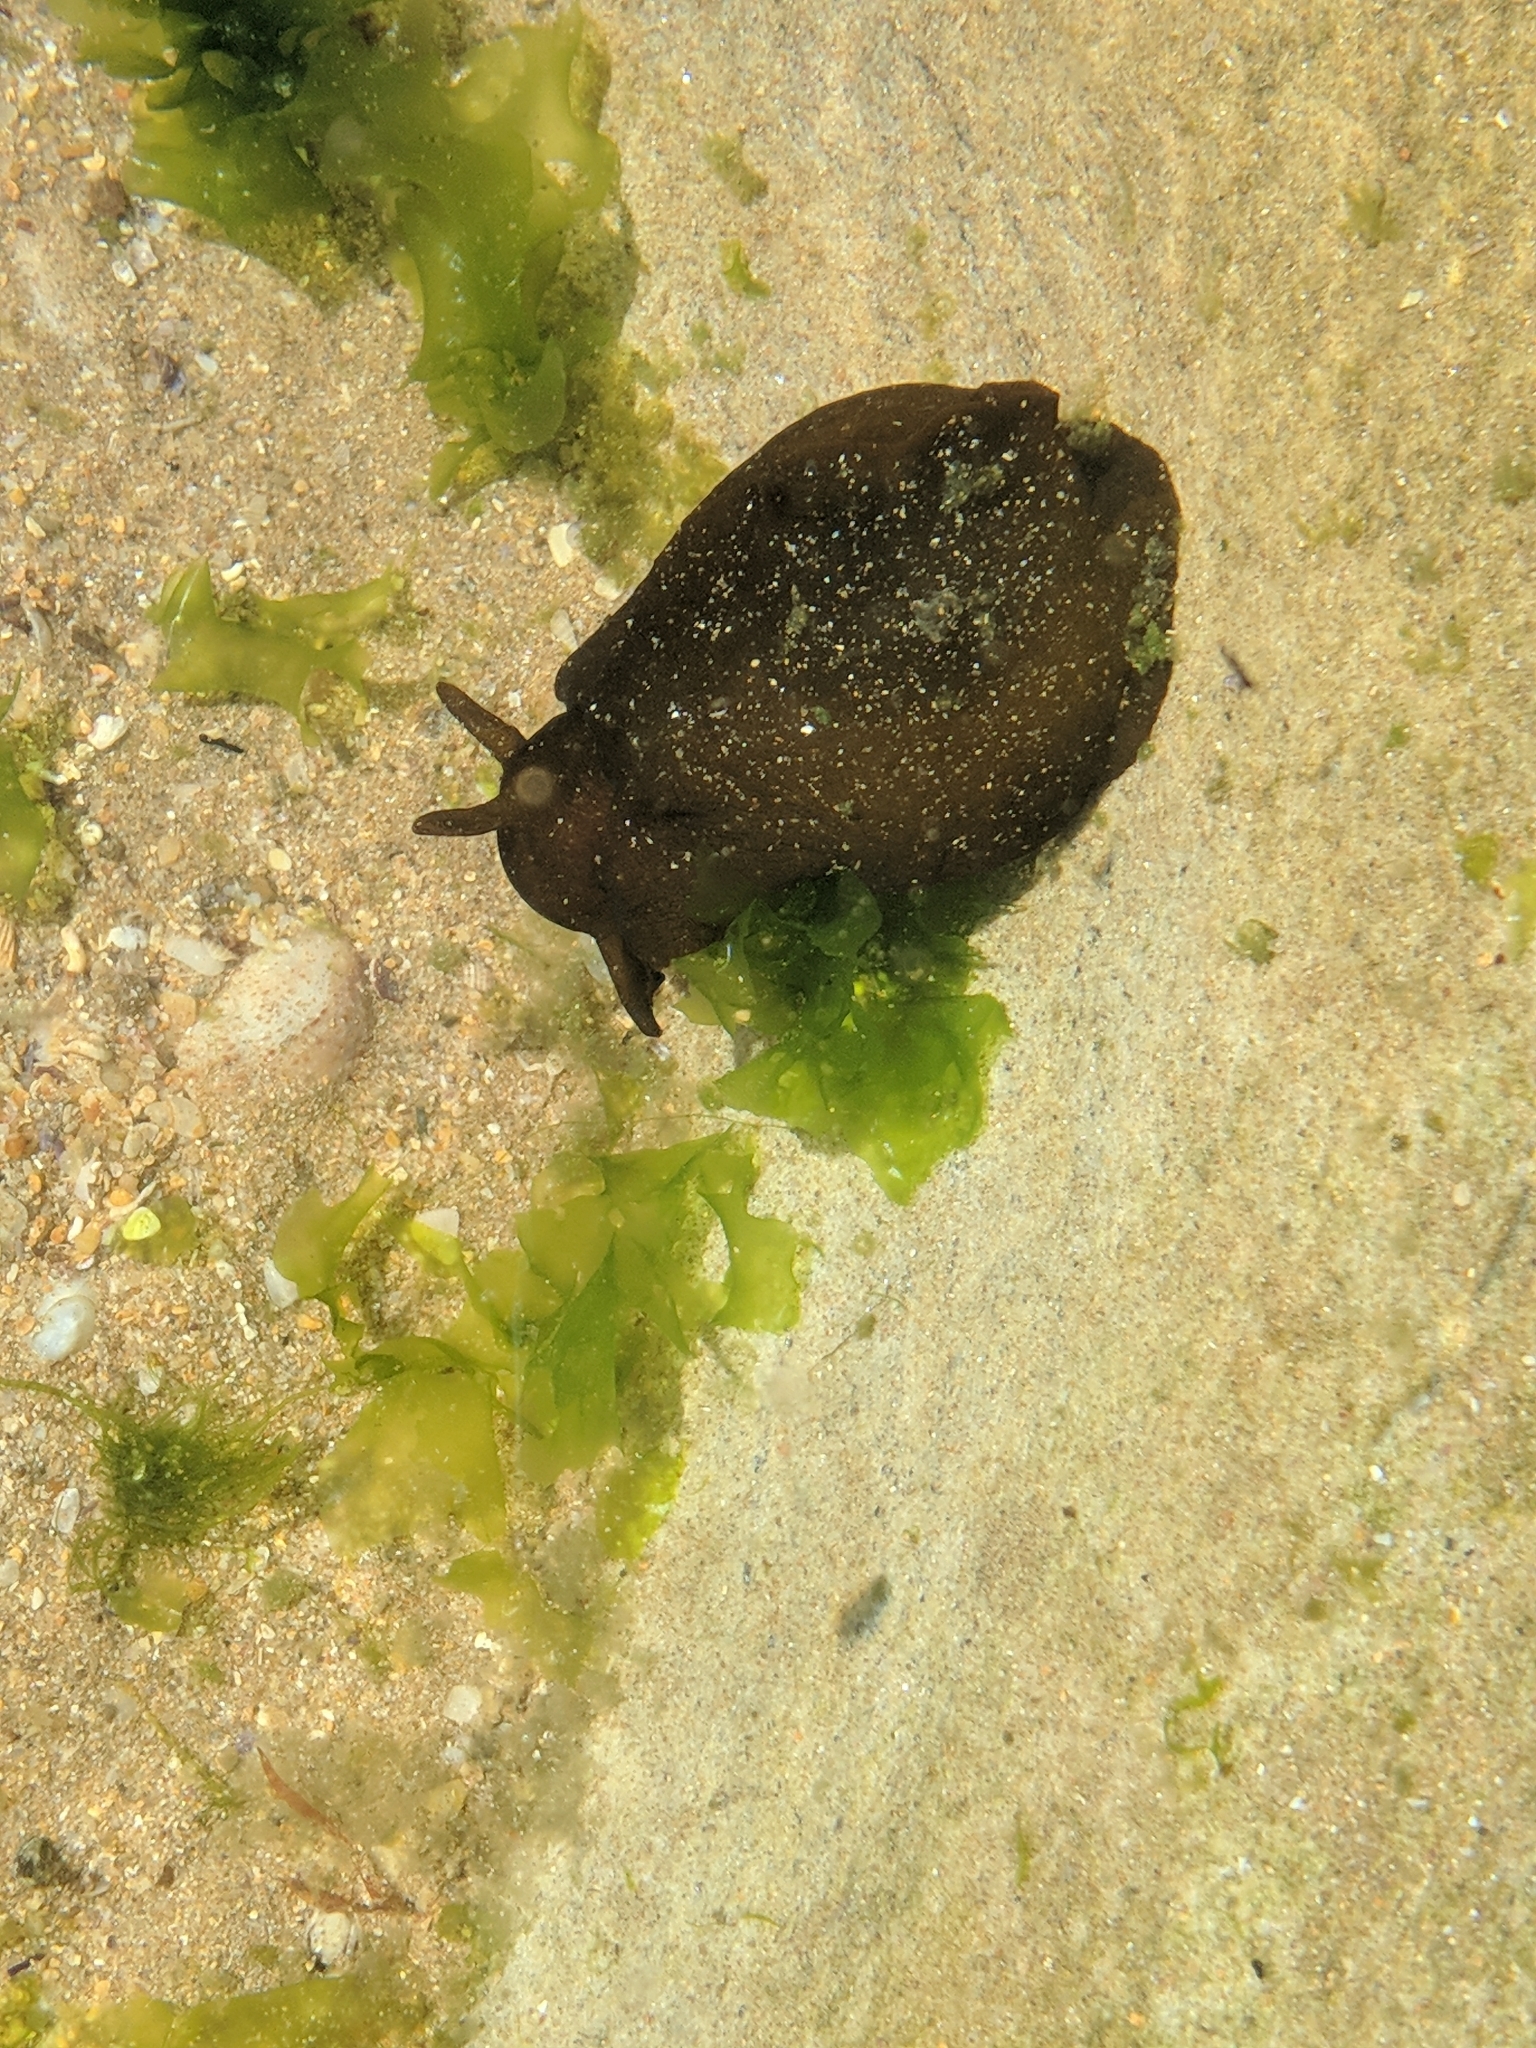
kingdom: Animalia
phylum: Mollusca
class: Gastropoda
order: Aplysiida
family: Aplysiidae
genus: Aplysia
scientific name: Aplysia juliana
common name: Walking sea hare
